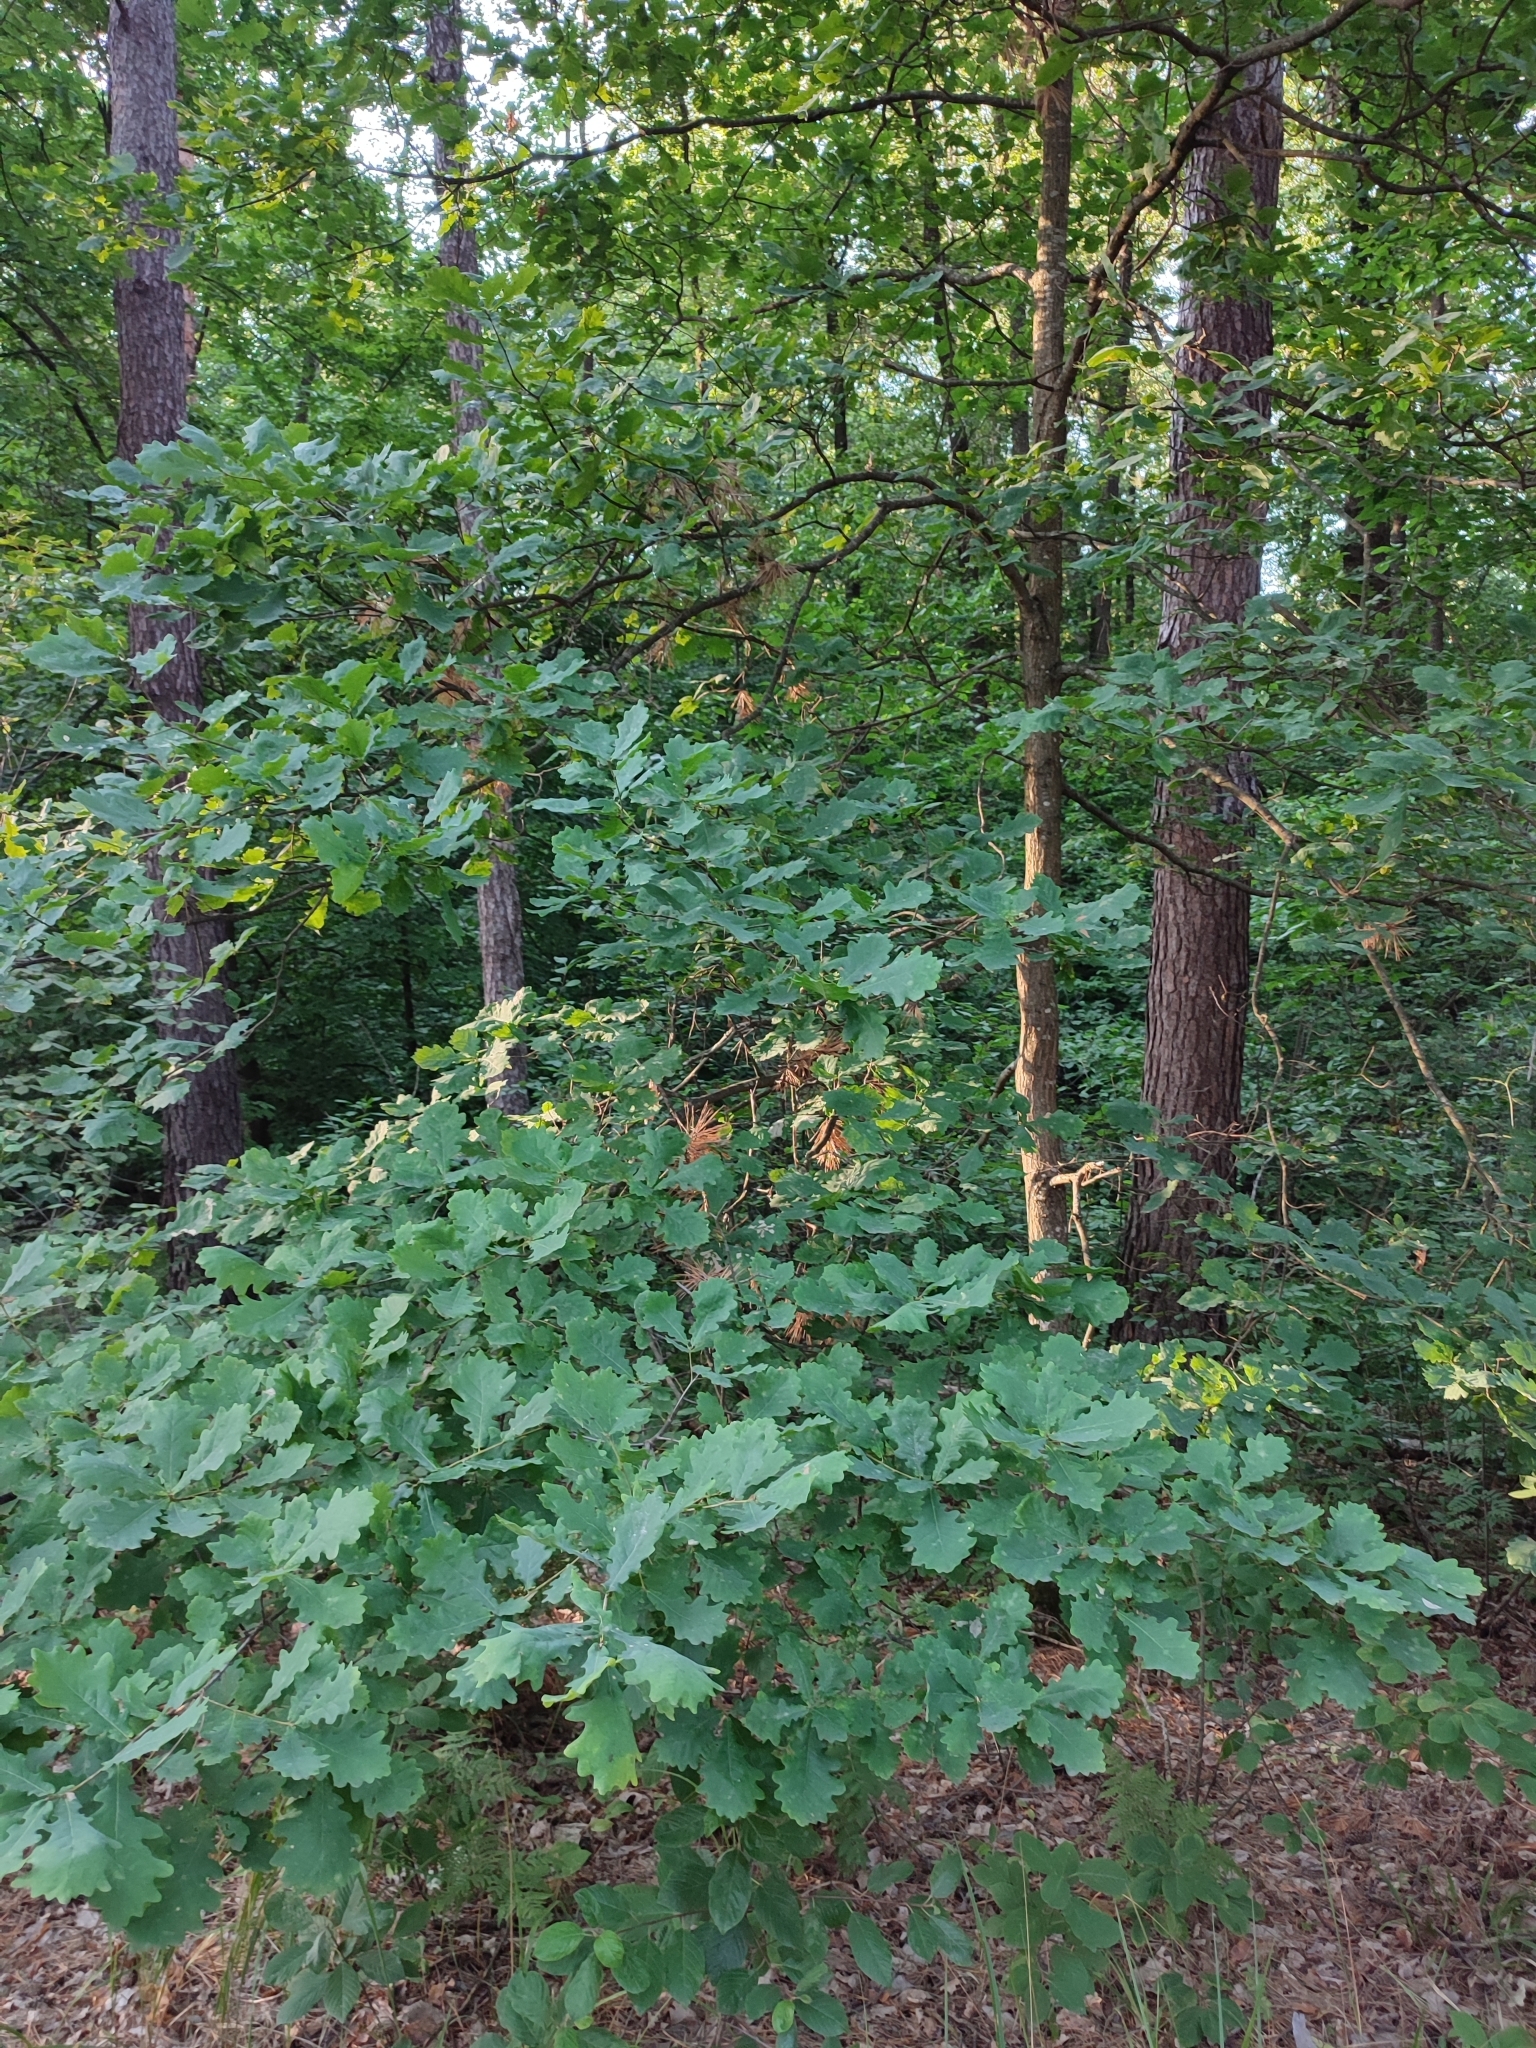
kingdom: Plantae
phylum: Tracheophyta
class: Magnoliopsida
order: Fagales
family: Fagaceae
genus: Quercus
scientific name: Quercus robur
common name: Pedunculate oak
